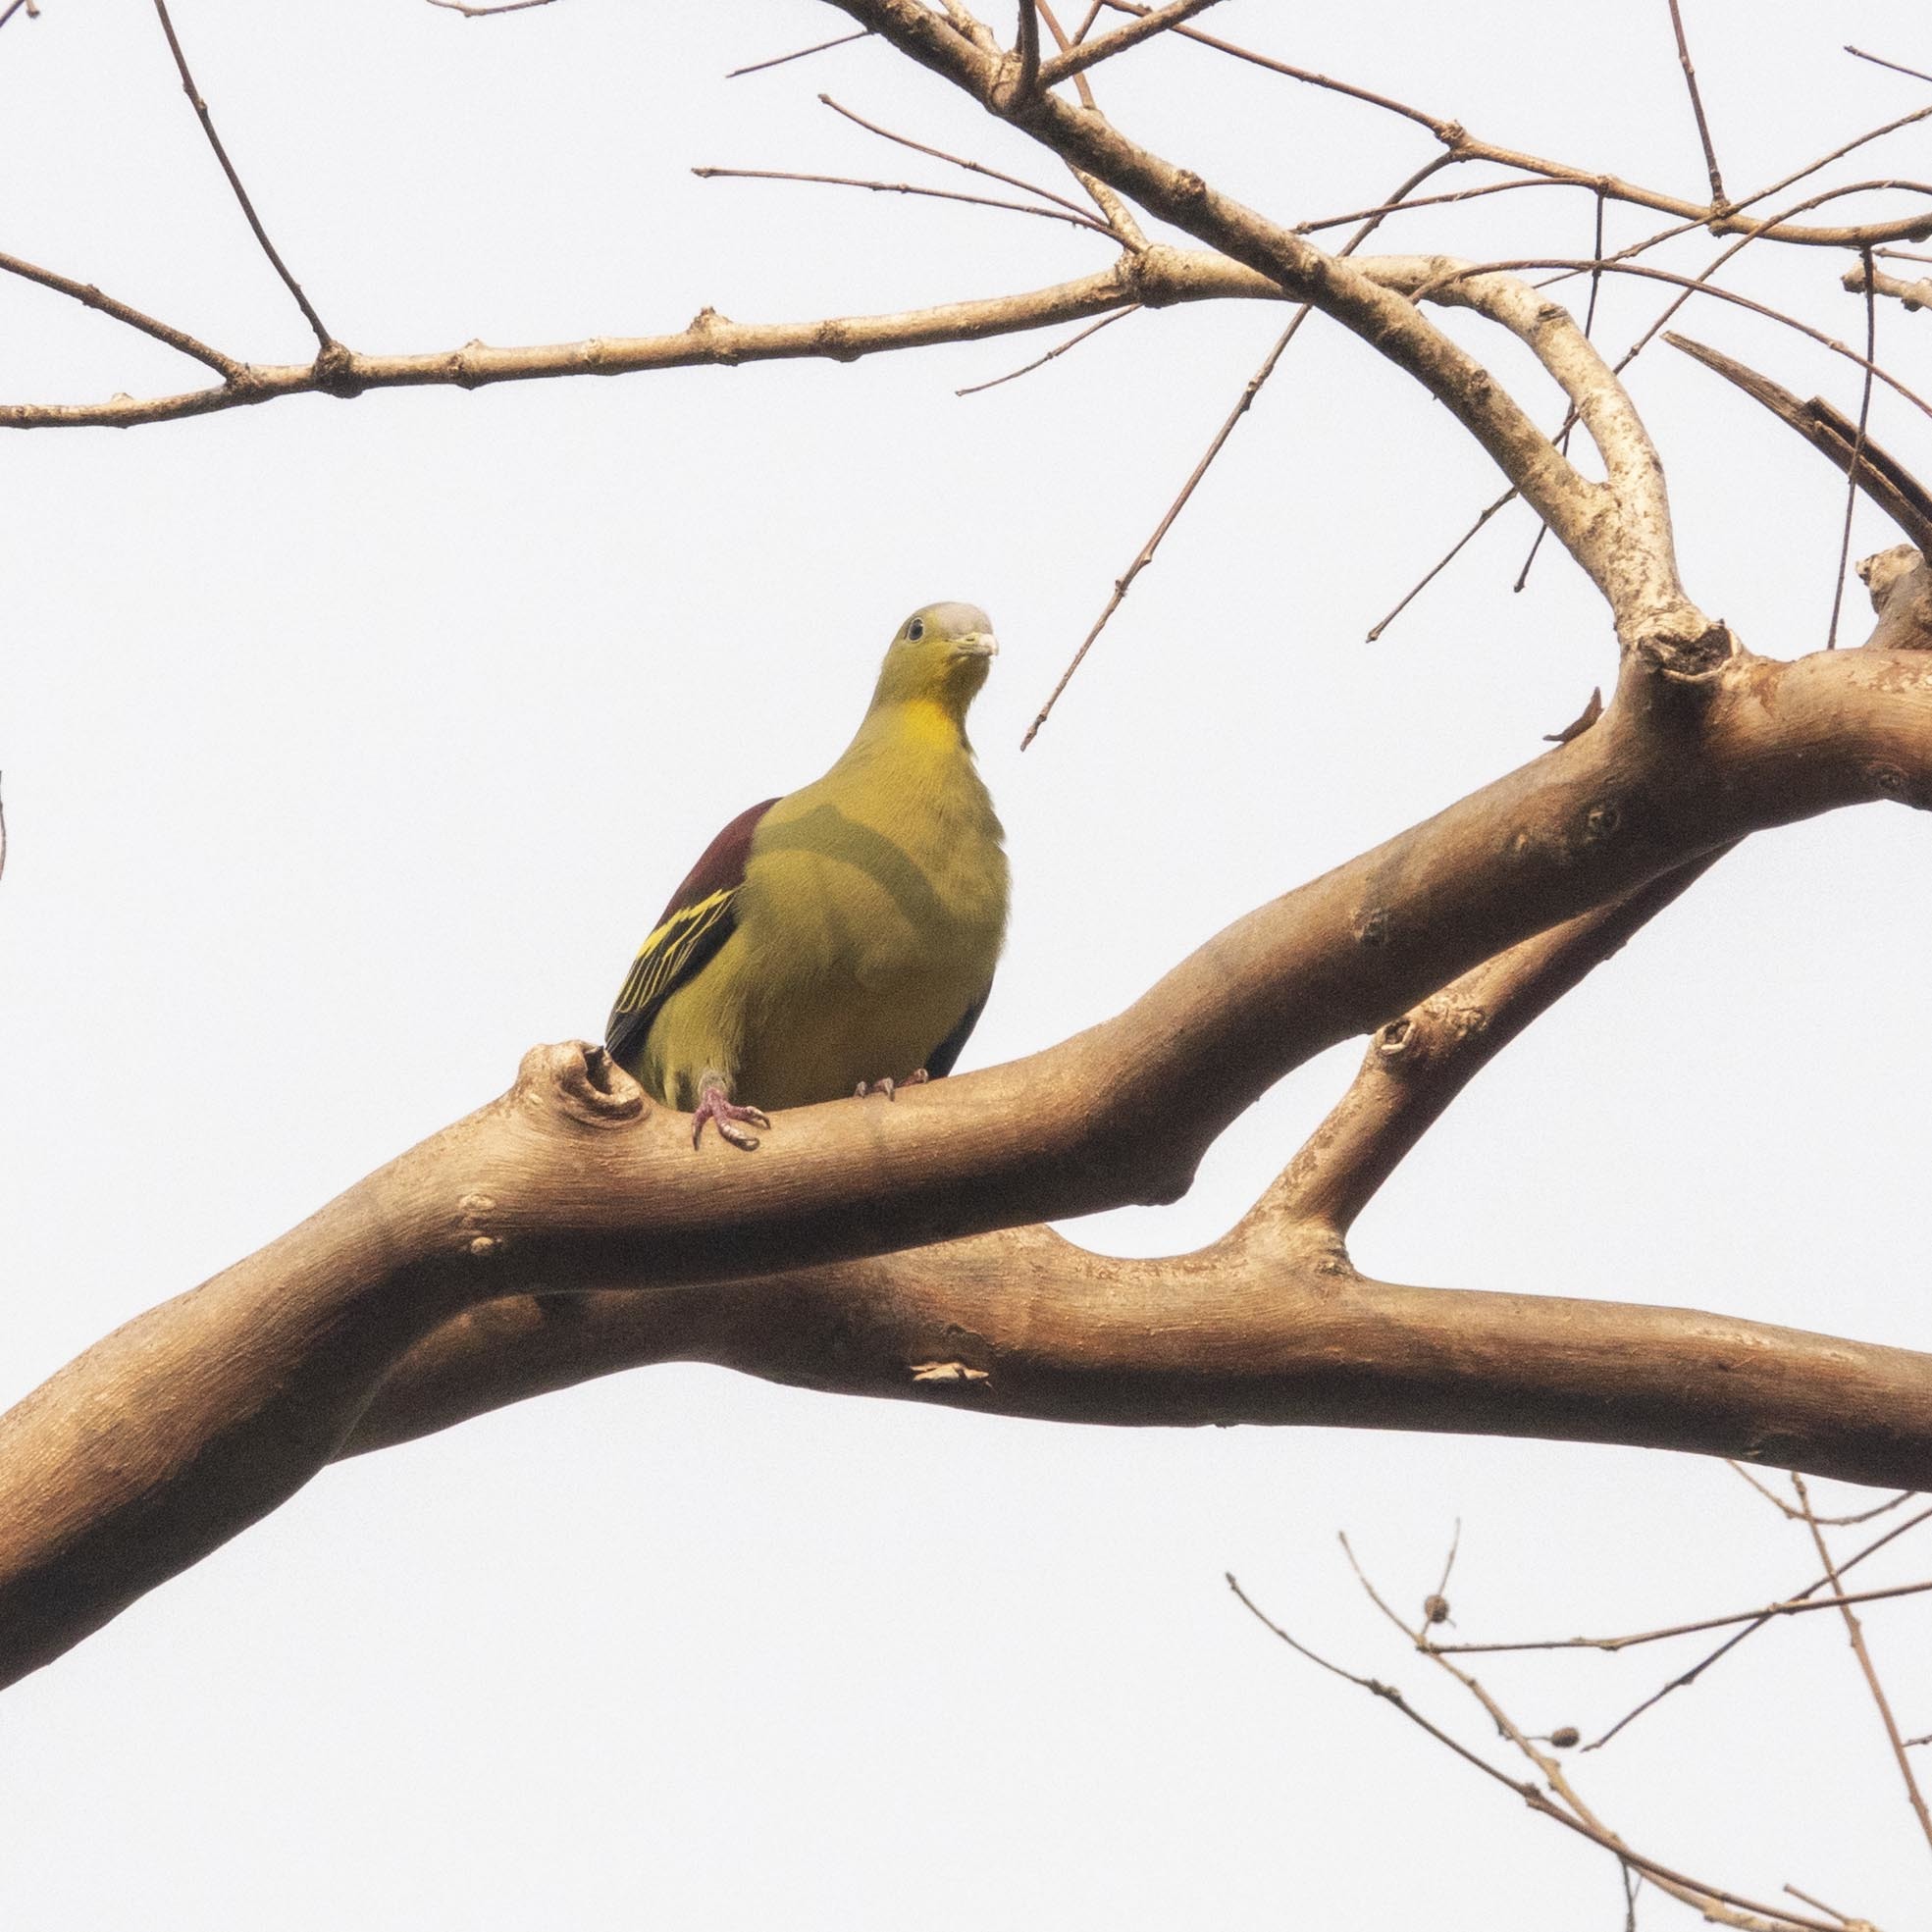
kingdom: Animalia
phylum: Chordata
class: Aves
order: Columbiformes
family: Columbidae
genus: Treron
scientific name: Treron affinis
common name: Grey-fronted green pigeon
